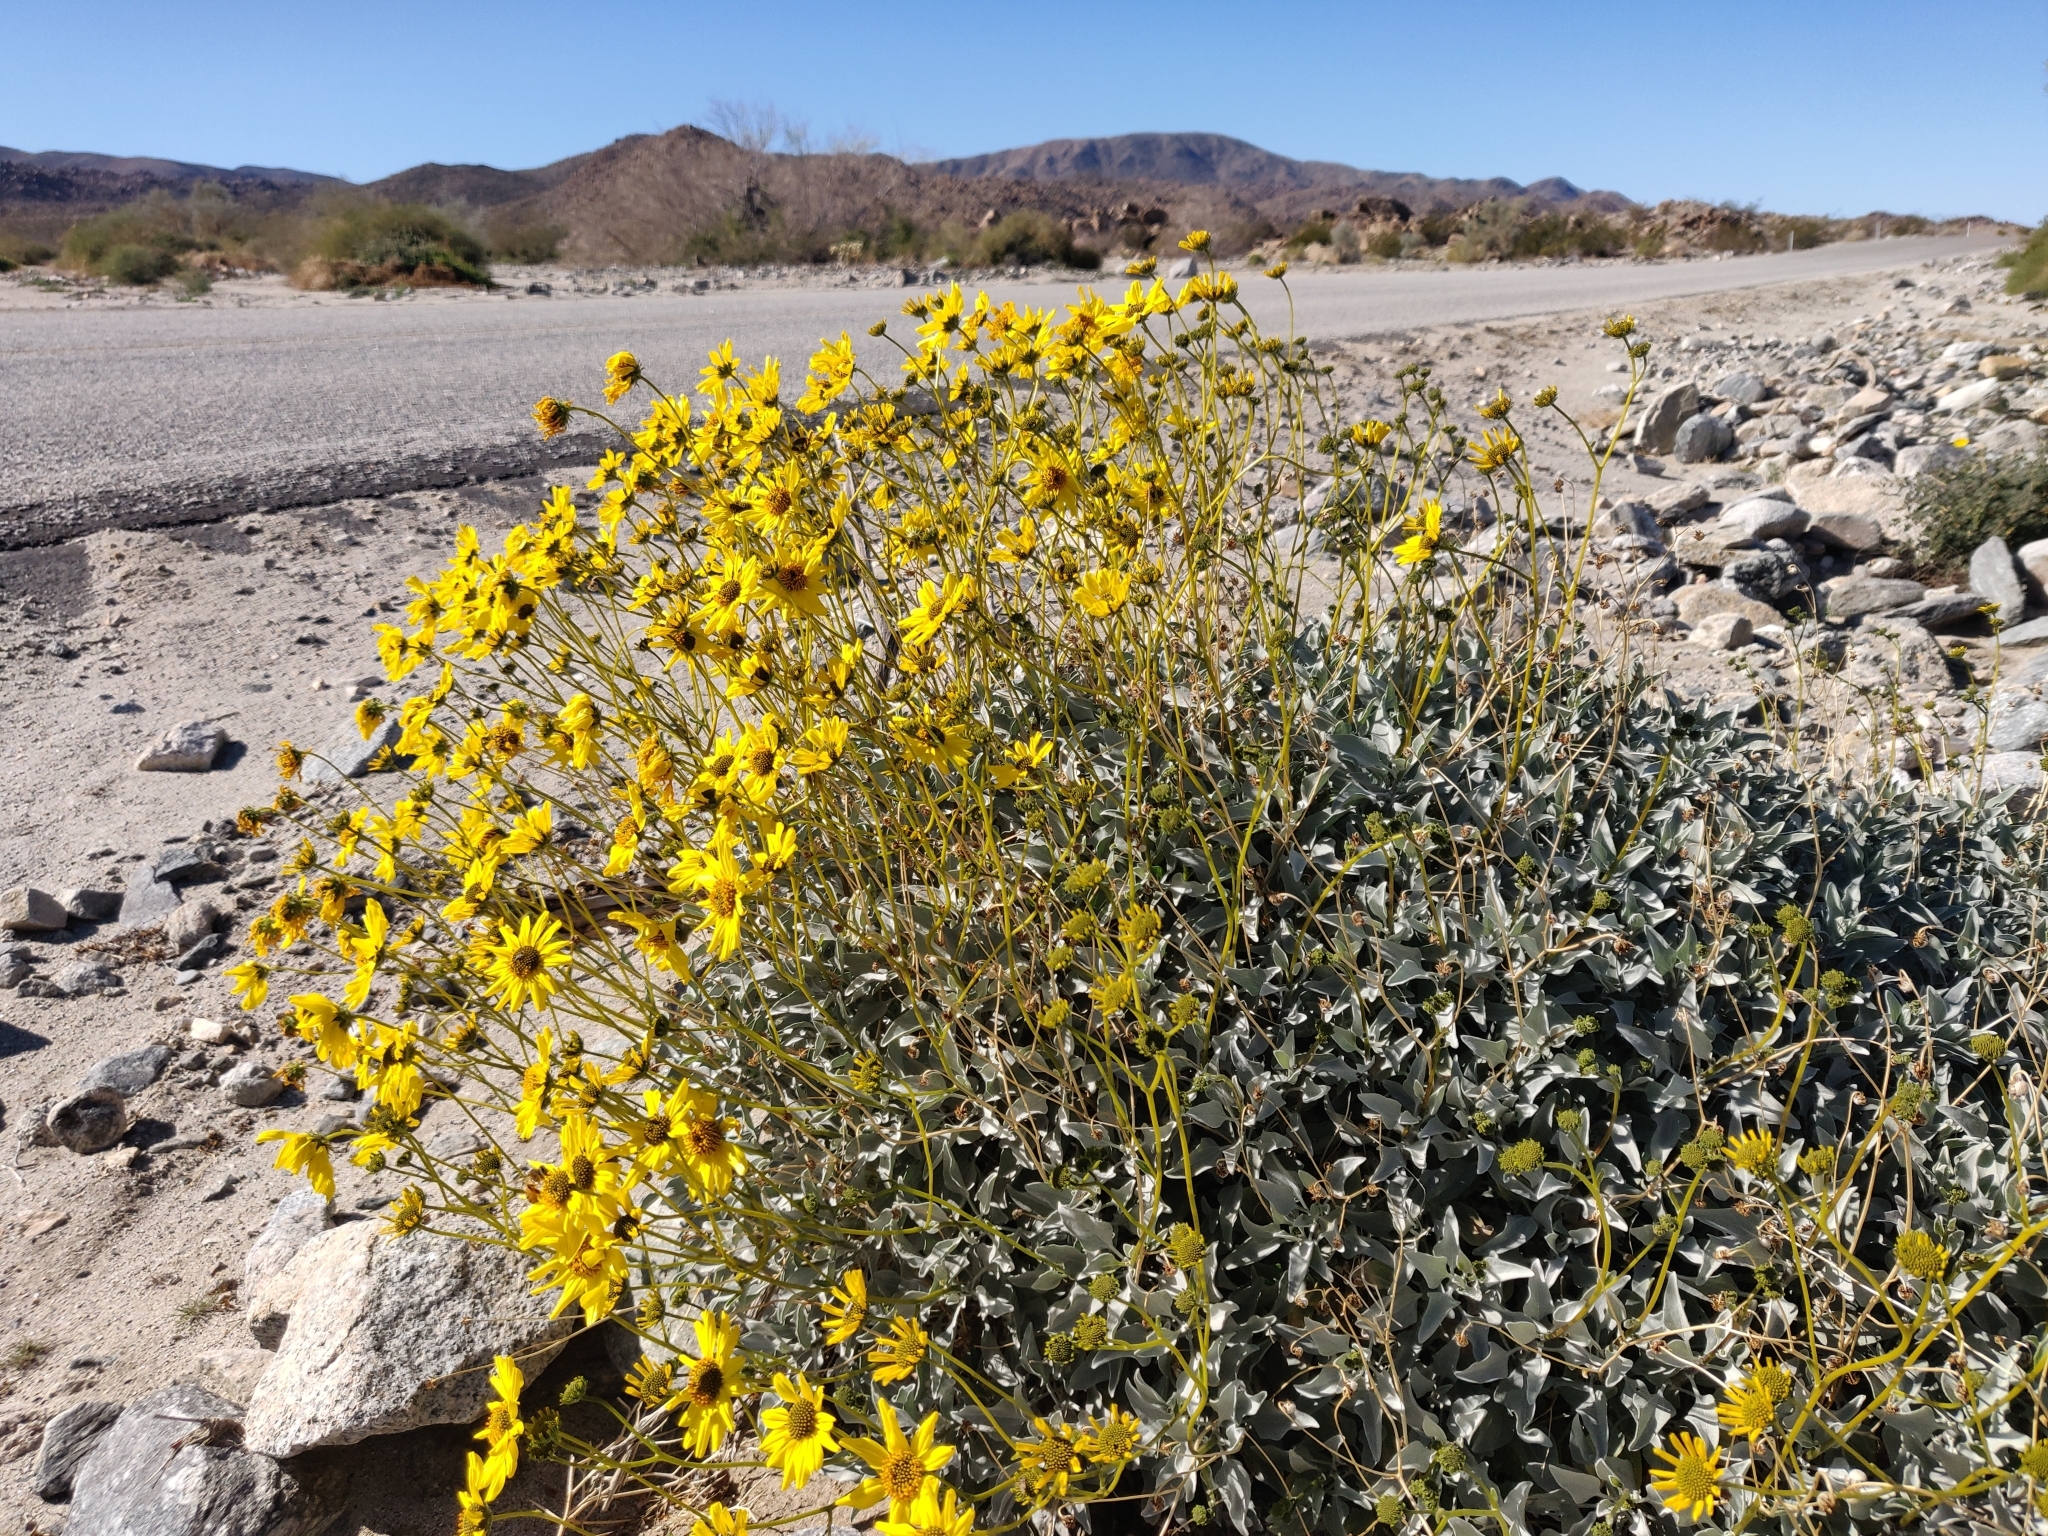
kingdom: Plantae
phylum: Tracheophyta
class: Magnoliopsida
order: Asterales
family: Asteraceae
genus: Encelia
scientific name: Encelia farinosa
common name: Brittlebush
